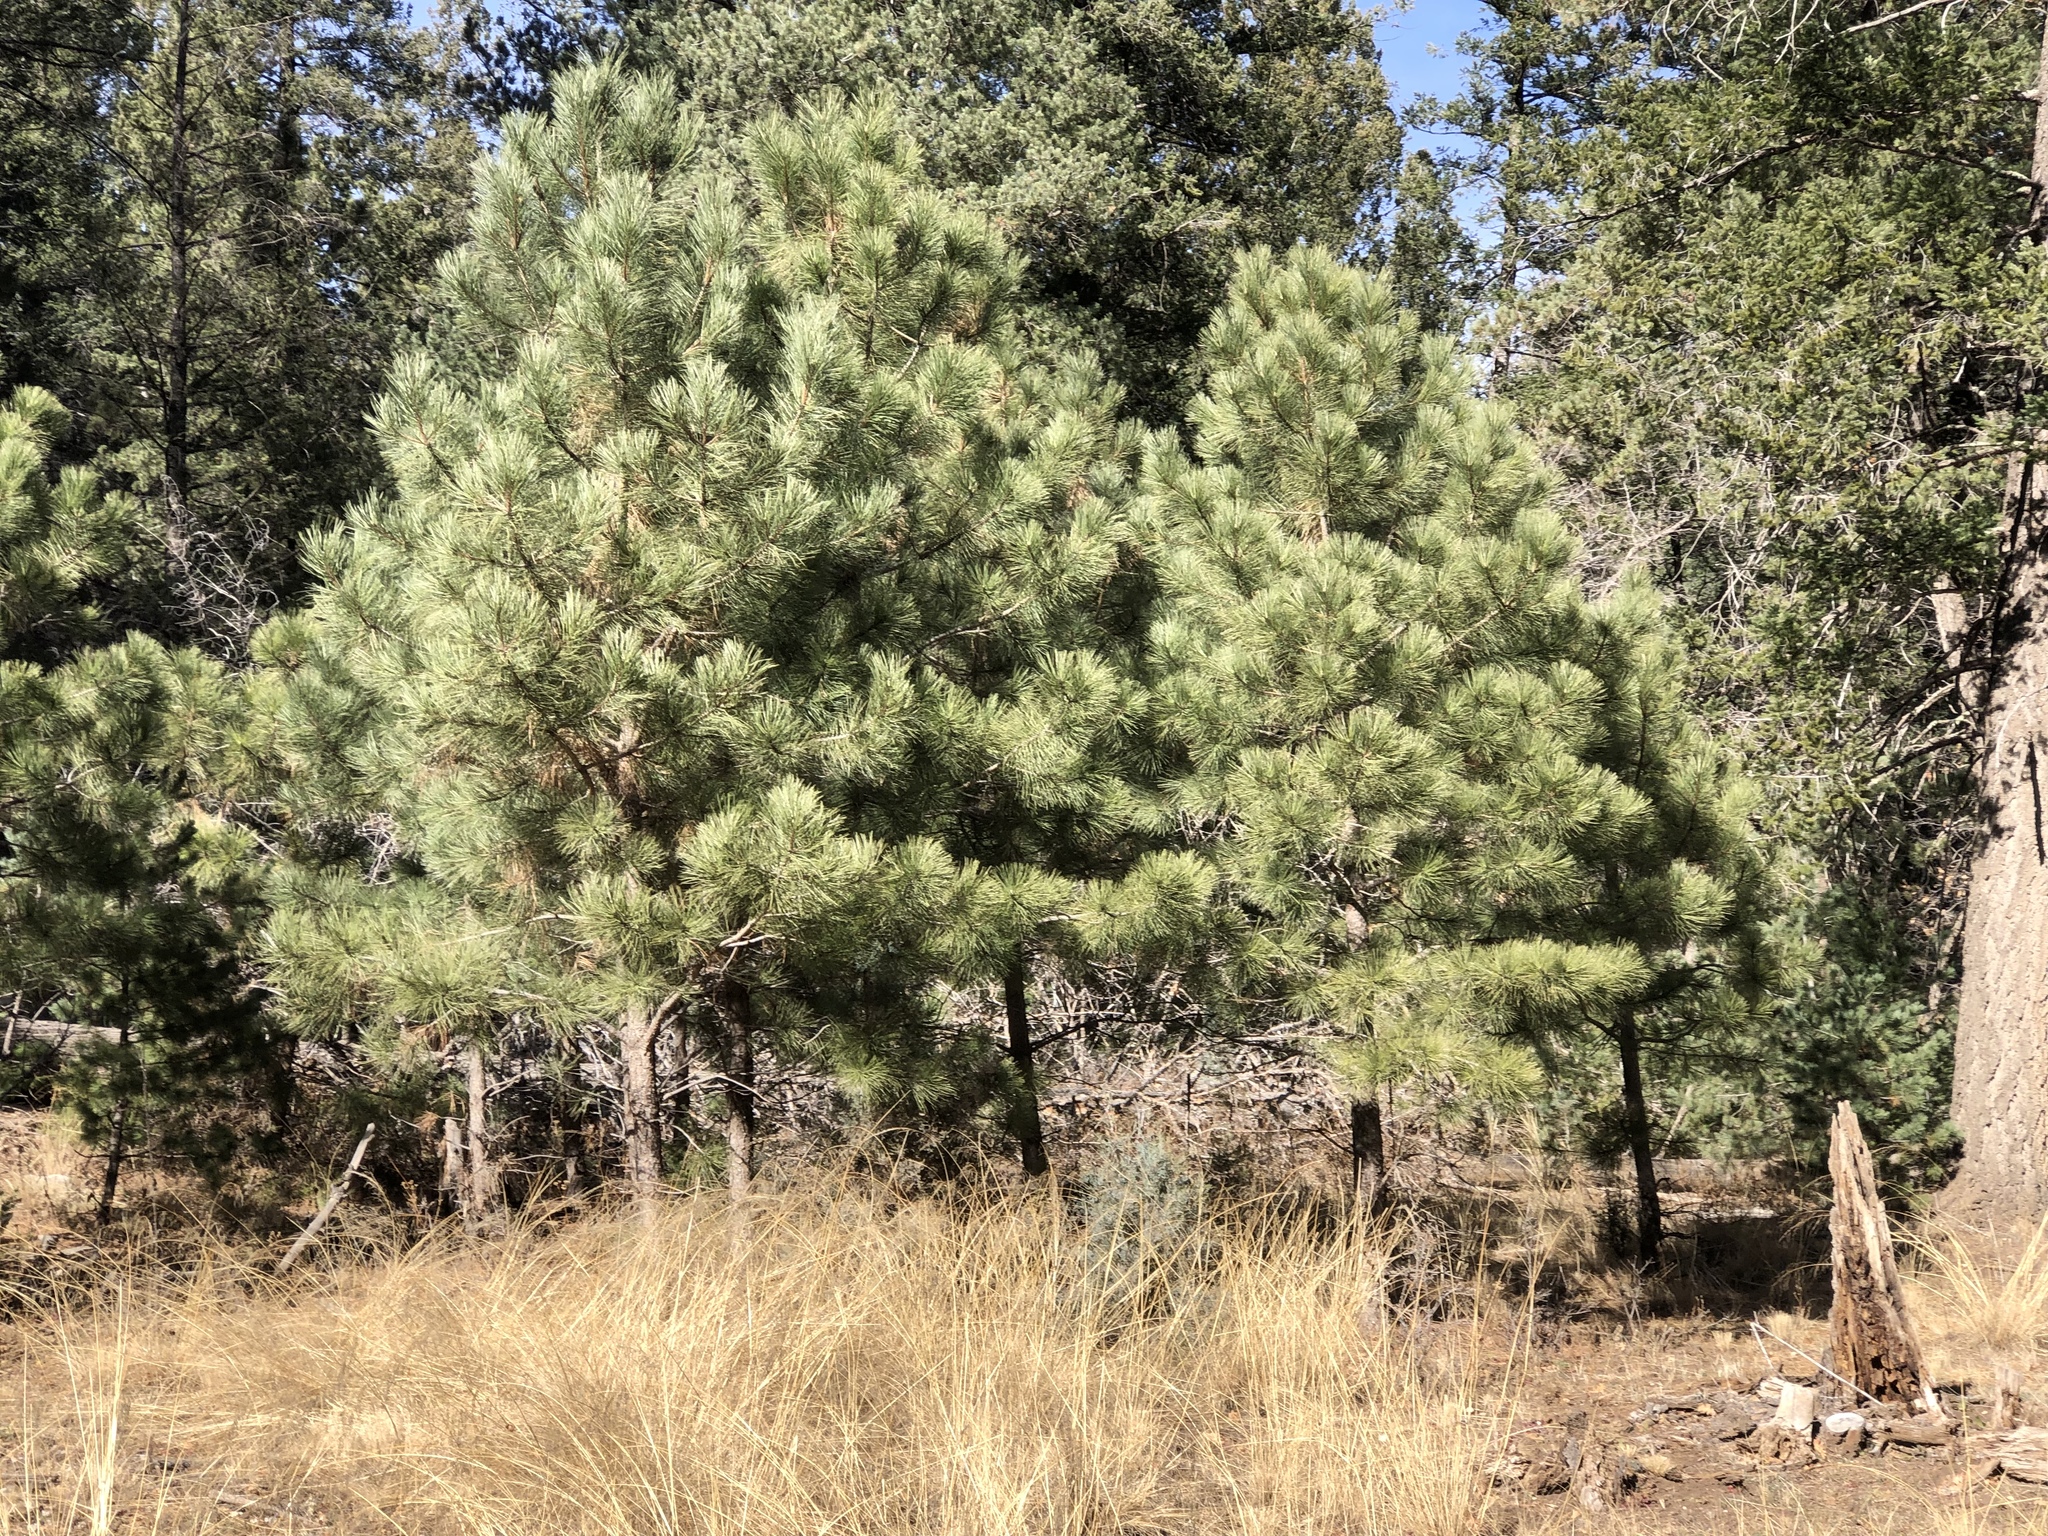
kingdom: Plantae
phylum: Tracheophyta
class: Pinopsida
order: Pinales
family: Pinaceae
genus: Pinus
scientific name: Pinus ponderosa
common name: Western yellow-pine
